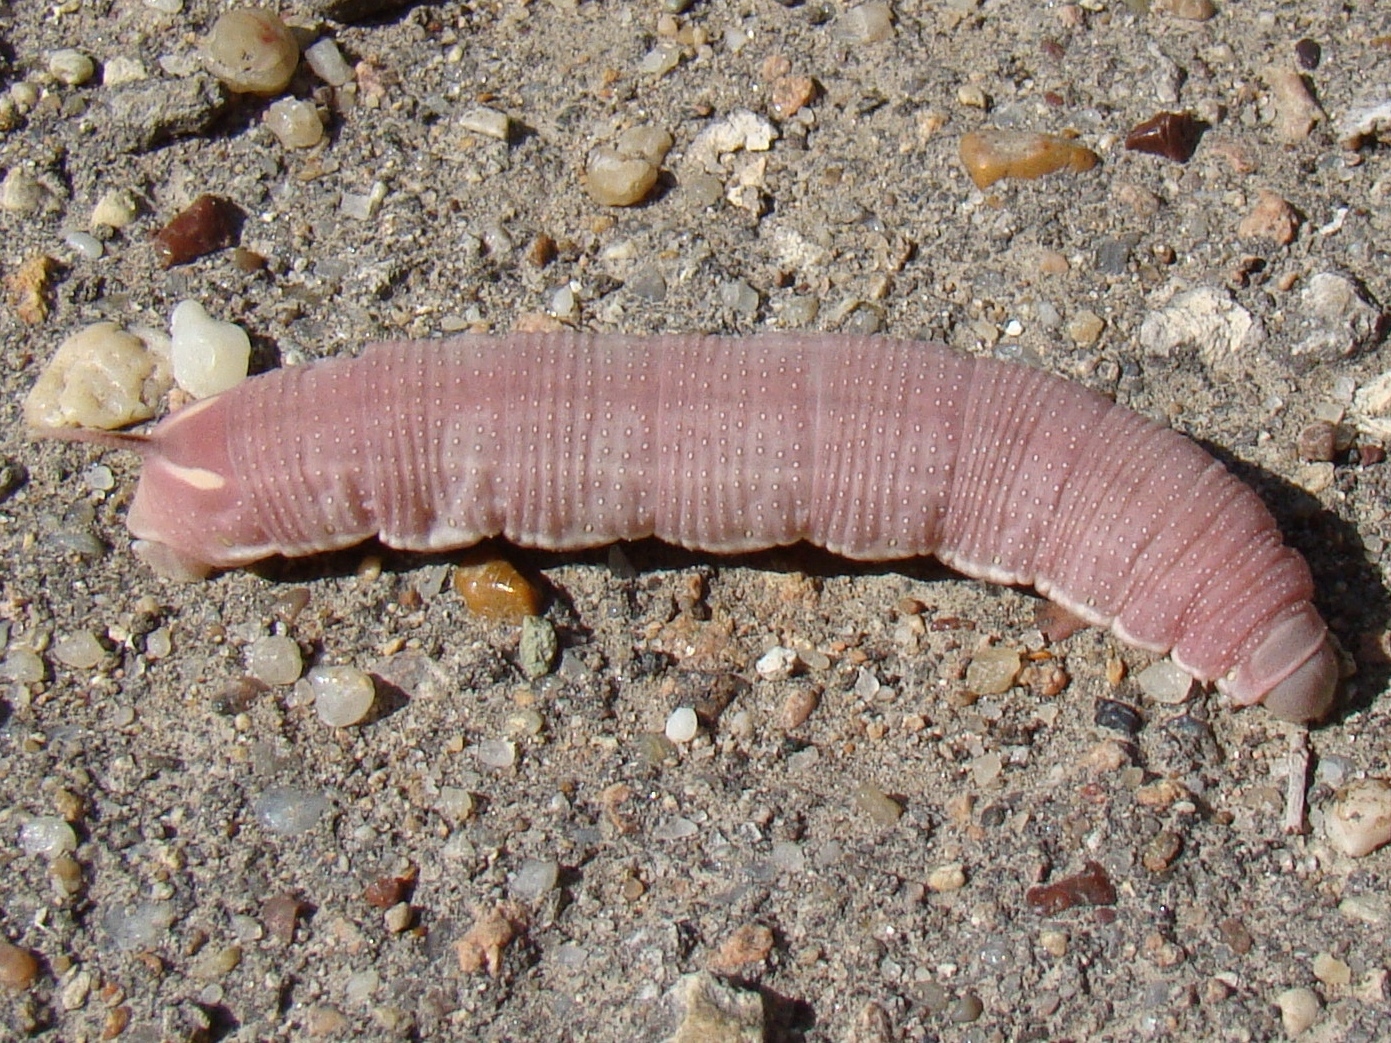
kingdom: Animalia
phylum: Arthropoda
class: Insecta
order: Lepidoptera
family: Sphingidae
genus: Hyles
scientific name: Hyles hippophaes
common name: Seathorn hawk-moth
